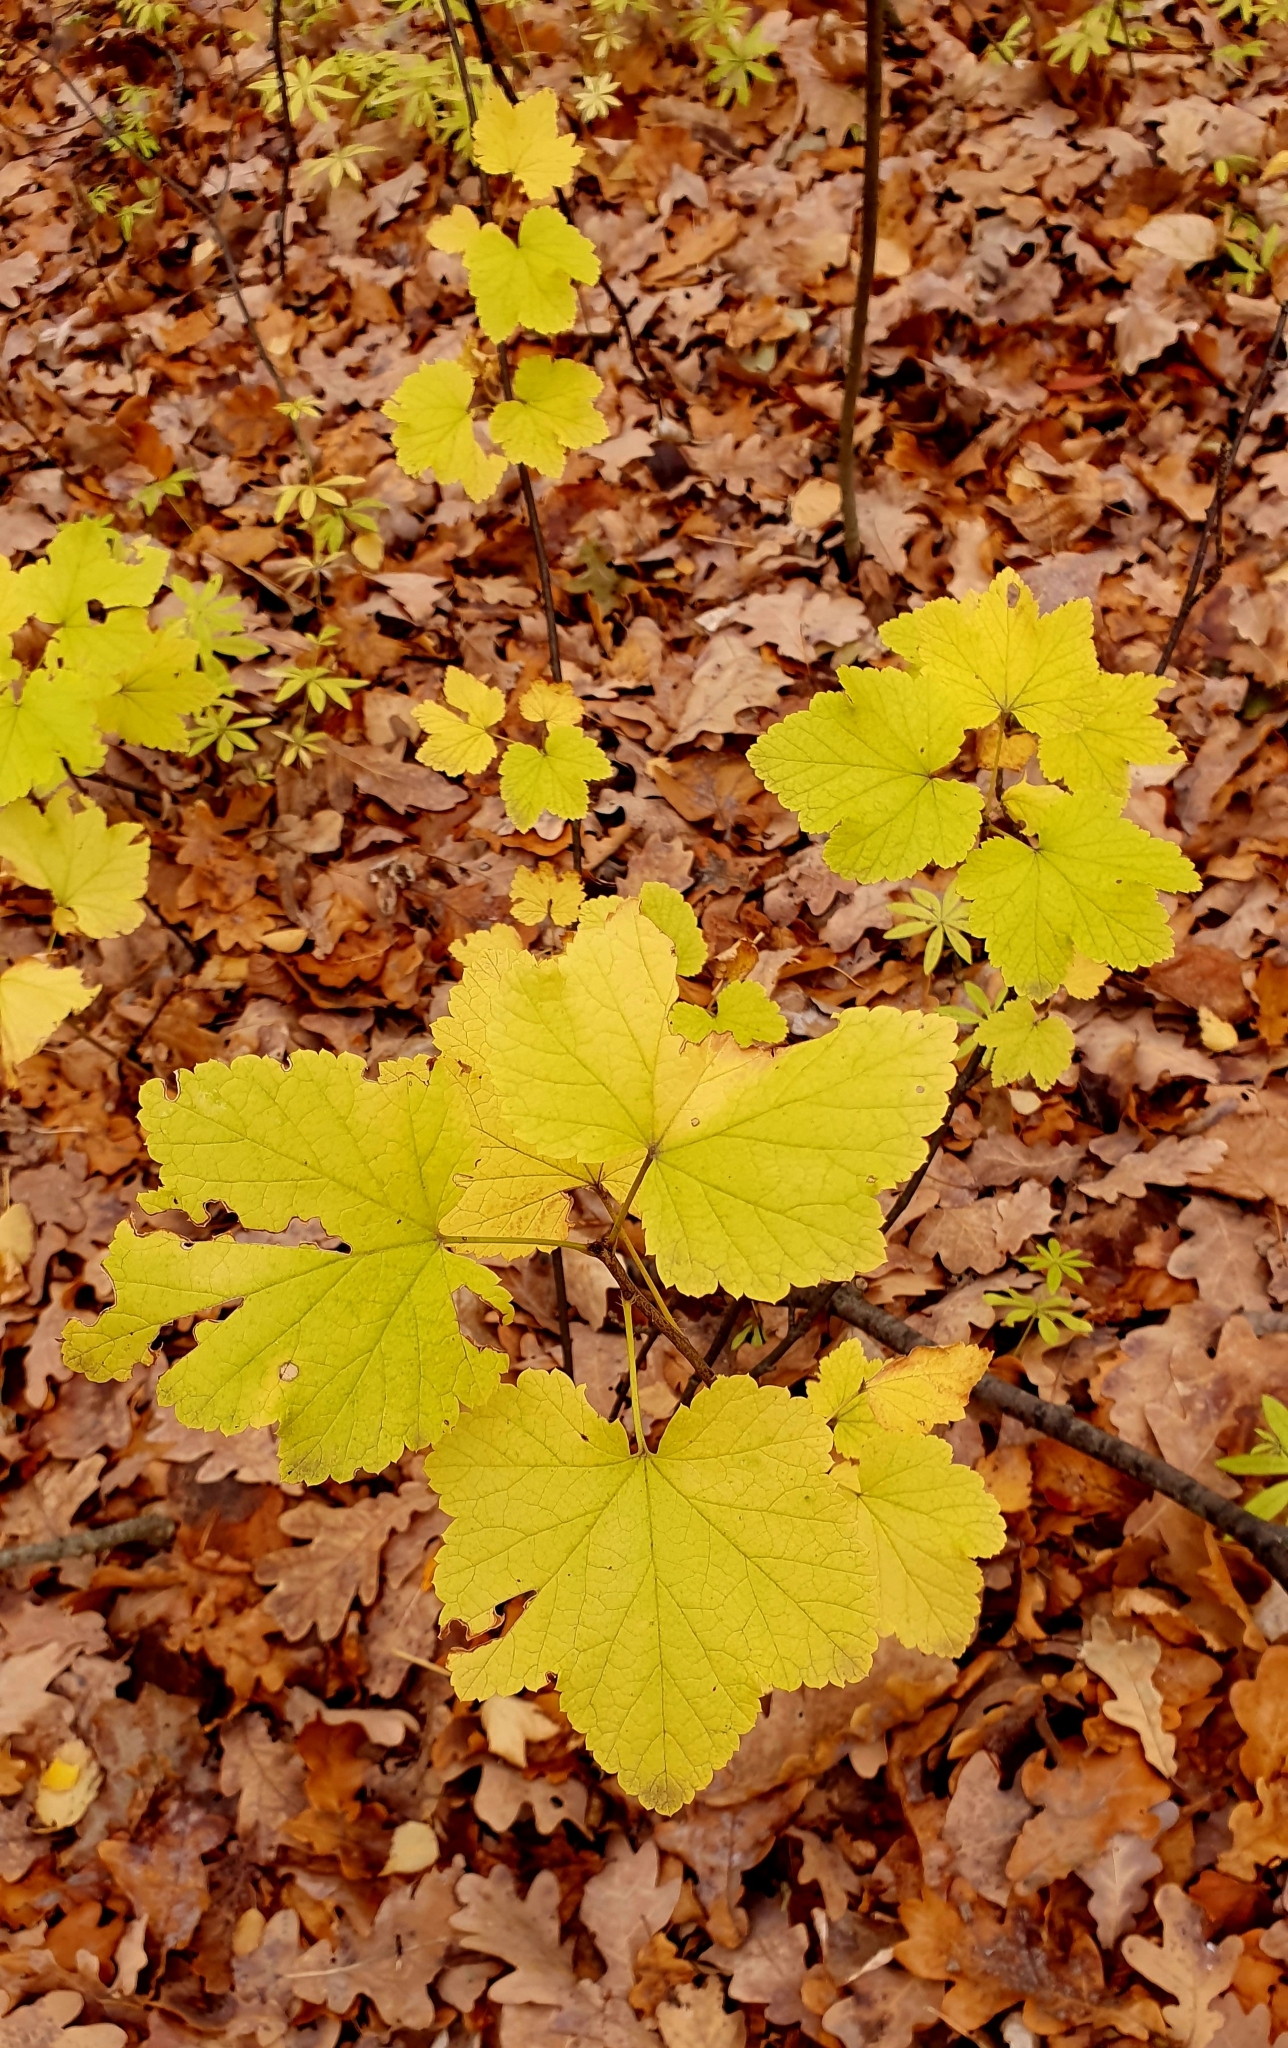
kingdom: Plantae
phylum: Tracheophyta
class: Magnoliopsida
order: Saxifragales
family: Grossulariaceae
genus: Ribes
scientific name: Ribes nigrum
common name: Black currant
